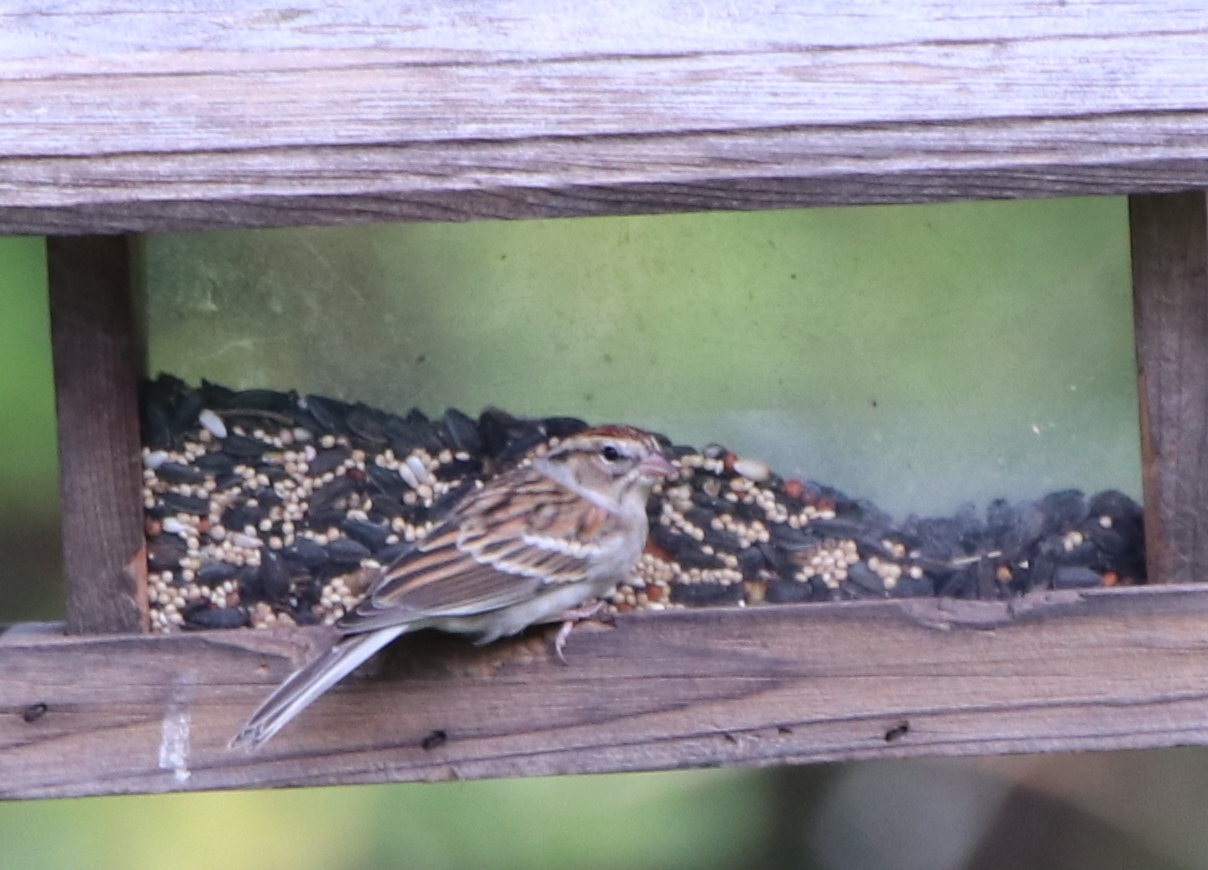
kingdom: Animalia
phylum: Chordata
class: Aves
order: Passeriformes
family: Passerellidae
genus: Spizella
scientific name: Spizella passerina
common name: Chipping sparrow
